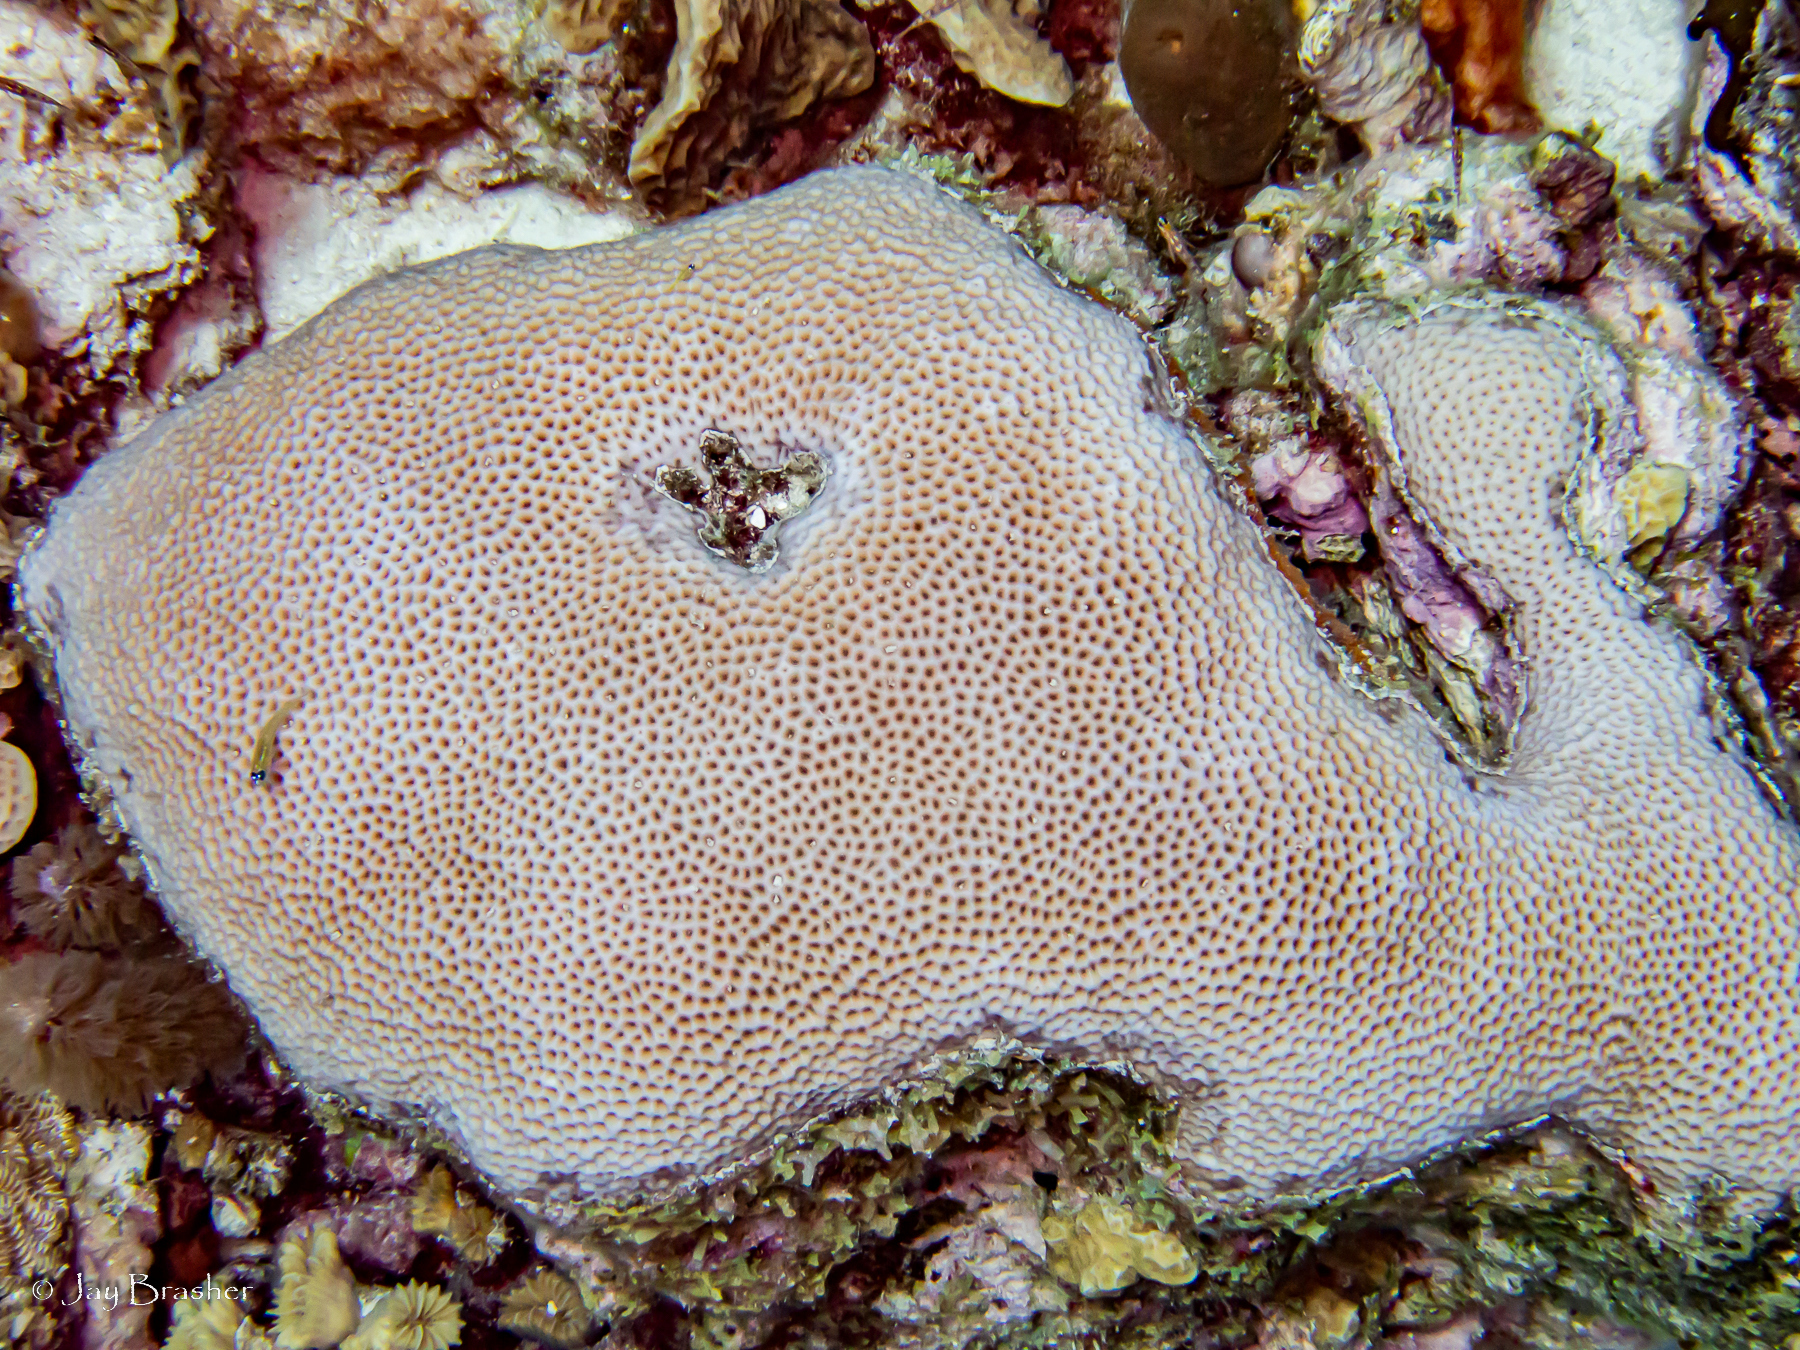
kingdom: Animalia
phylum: Chordata
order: Perciformes
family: Gobiidae
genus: Coryphopterus
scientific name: Coryphopterus lipernes
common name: Peppermint goby
